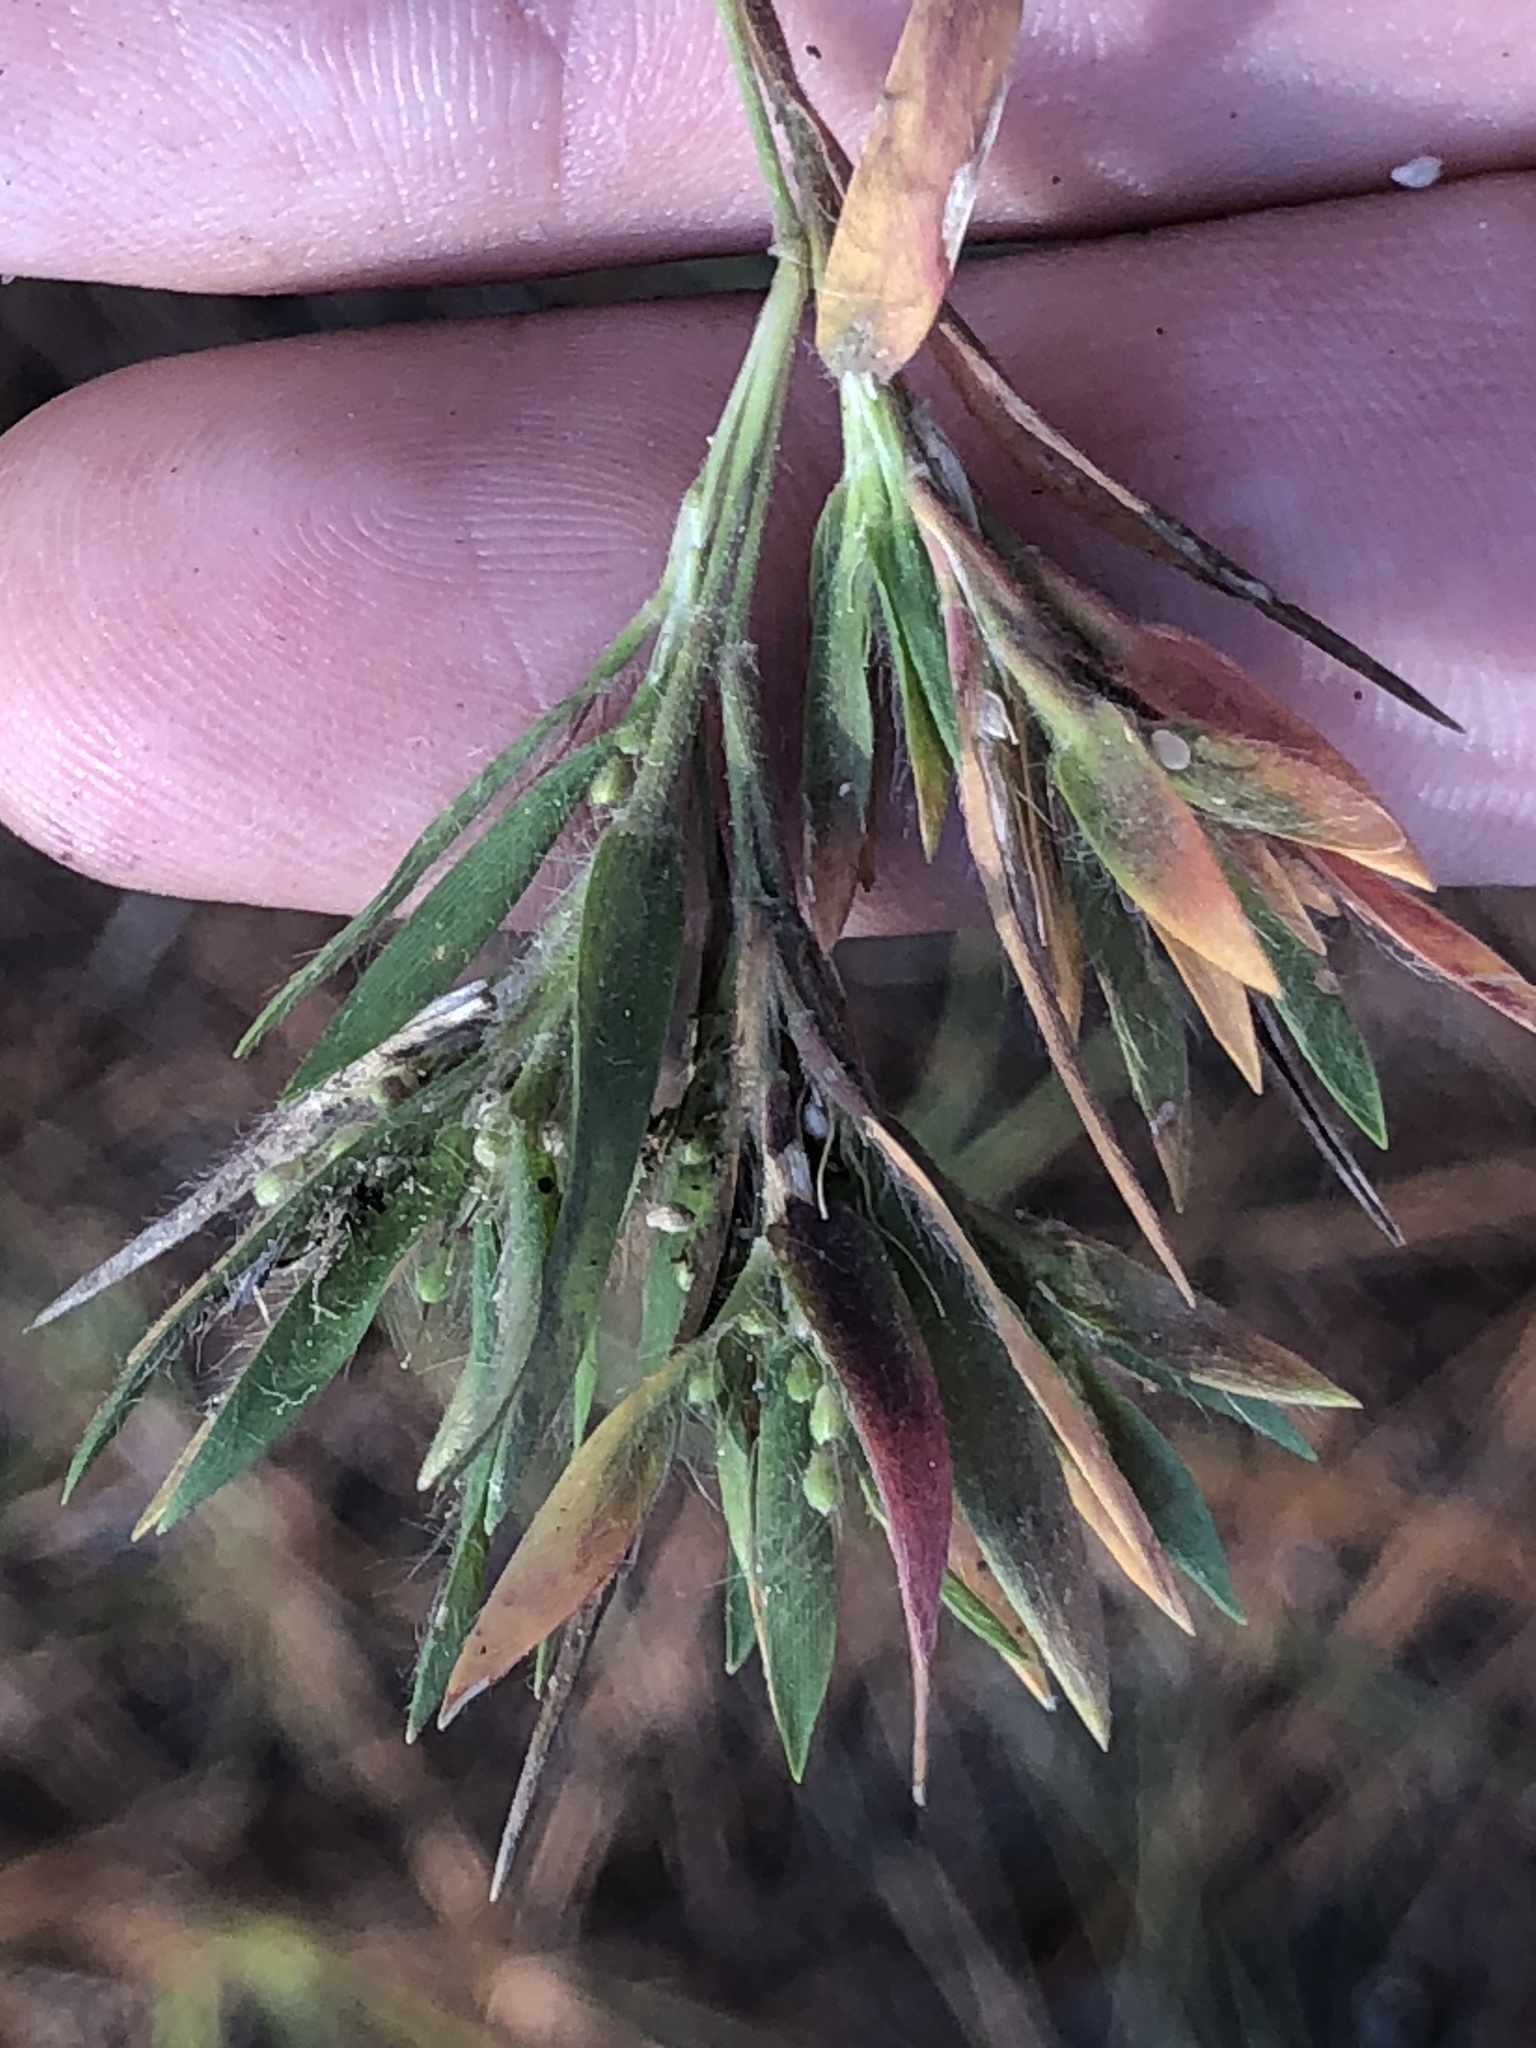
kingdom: Plantae
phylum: Tracheophyta
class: Liliopsida
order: Poales
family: Poaceae
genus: Dichanthelium
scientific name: Dichanthelium meridionale
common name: Mat panicgrass
